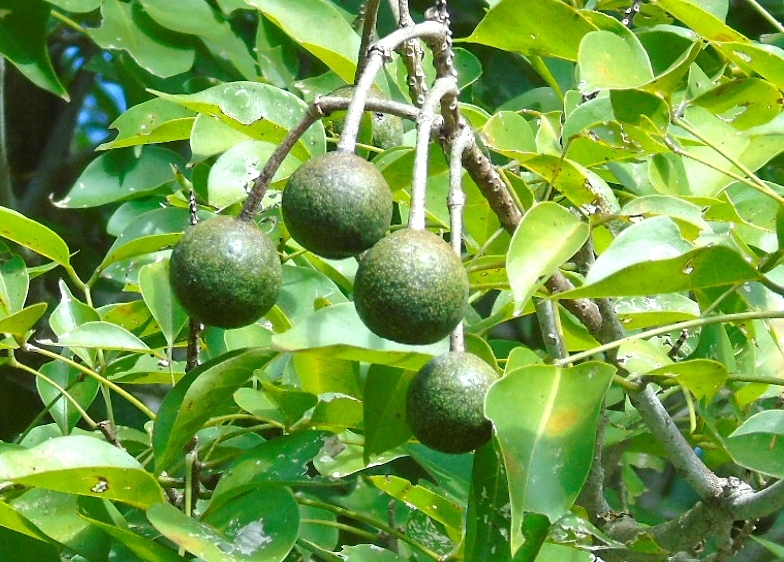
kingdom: Plantae
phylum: Tracheophyta
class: Magnoliopsida
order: Brassicales
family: Capparaceae
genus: Crateva
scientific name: Crateva tapia
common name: Garlic-pear
